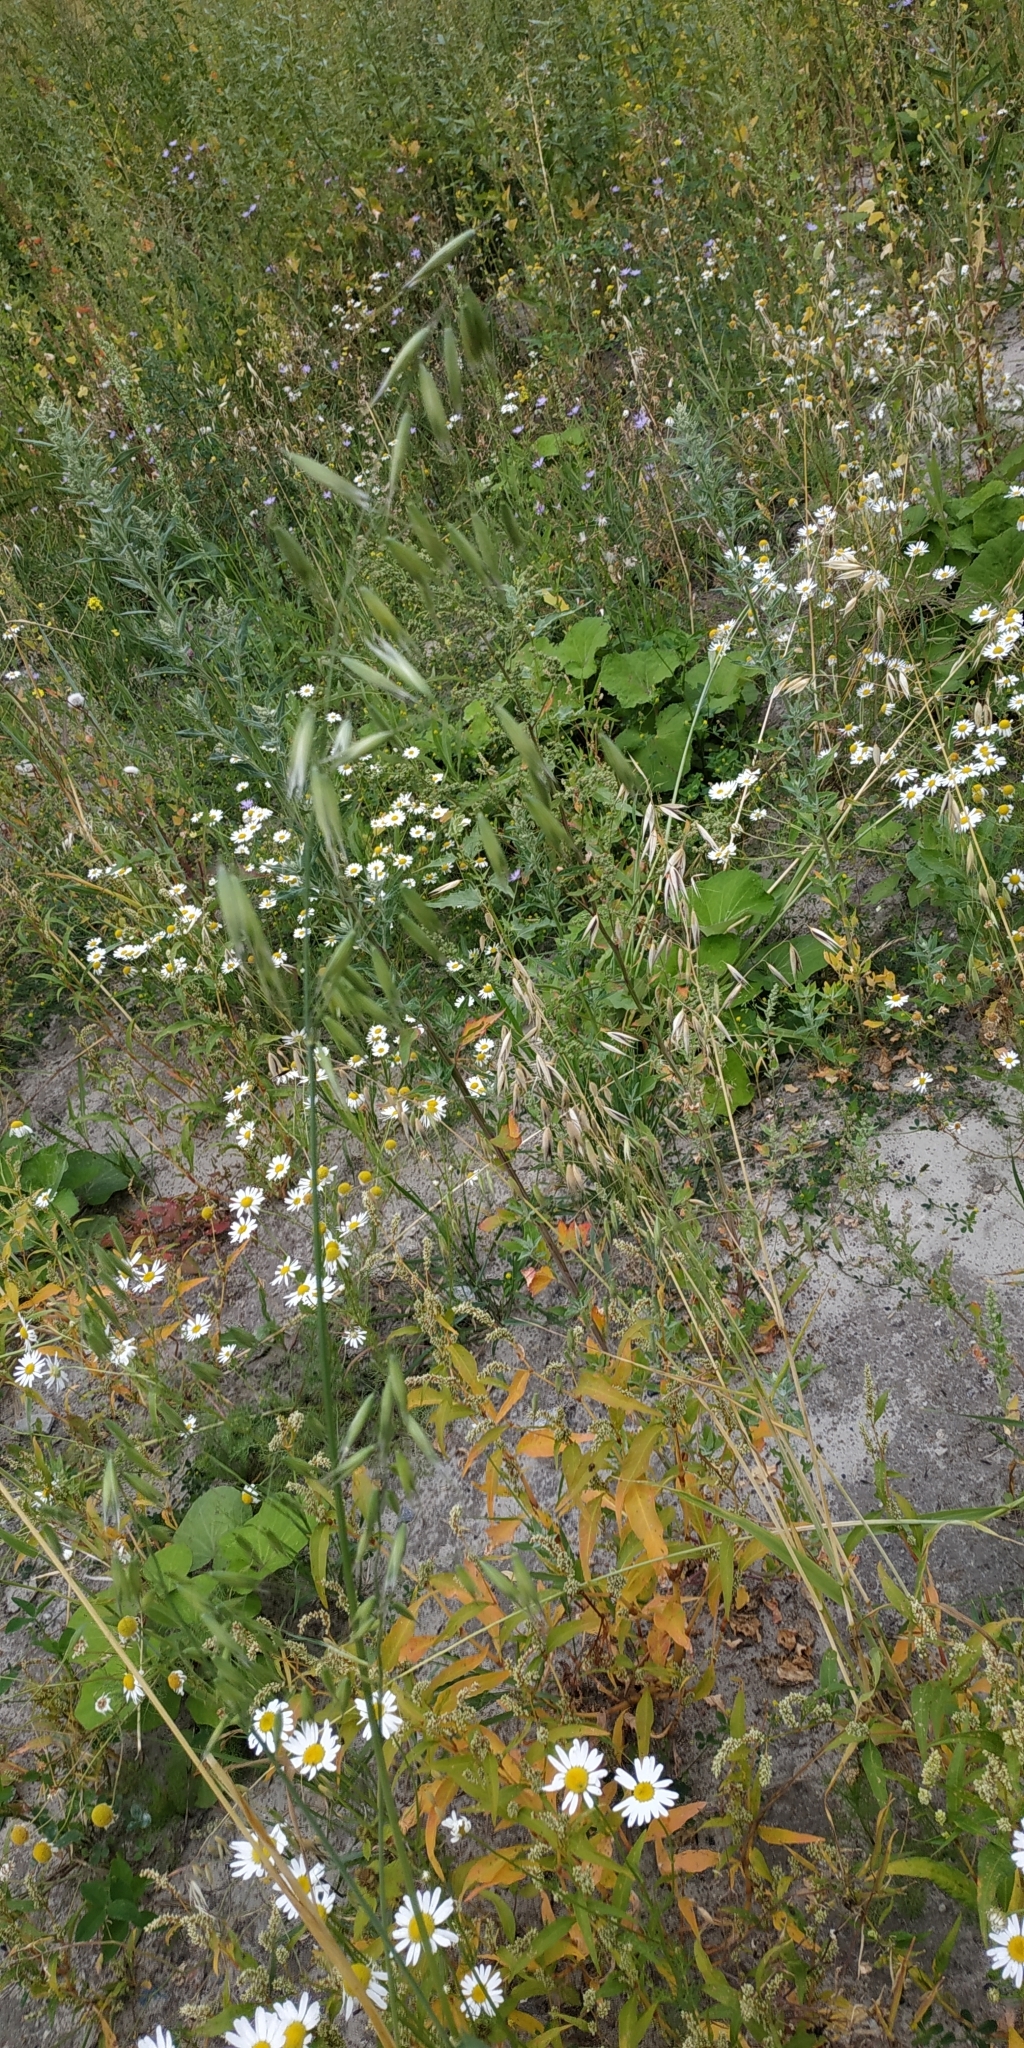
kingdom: Plantae
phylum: Tracheophyta
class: Liliopsida
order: Poales
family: Poaceae
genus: Avena
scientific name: Avena fatua
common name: Wild oat
